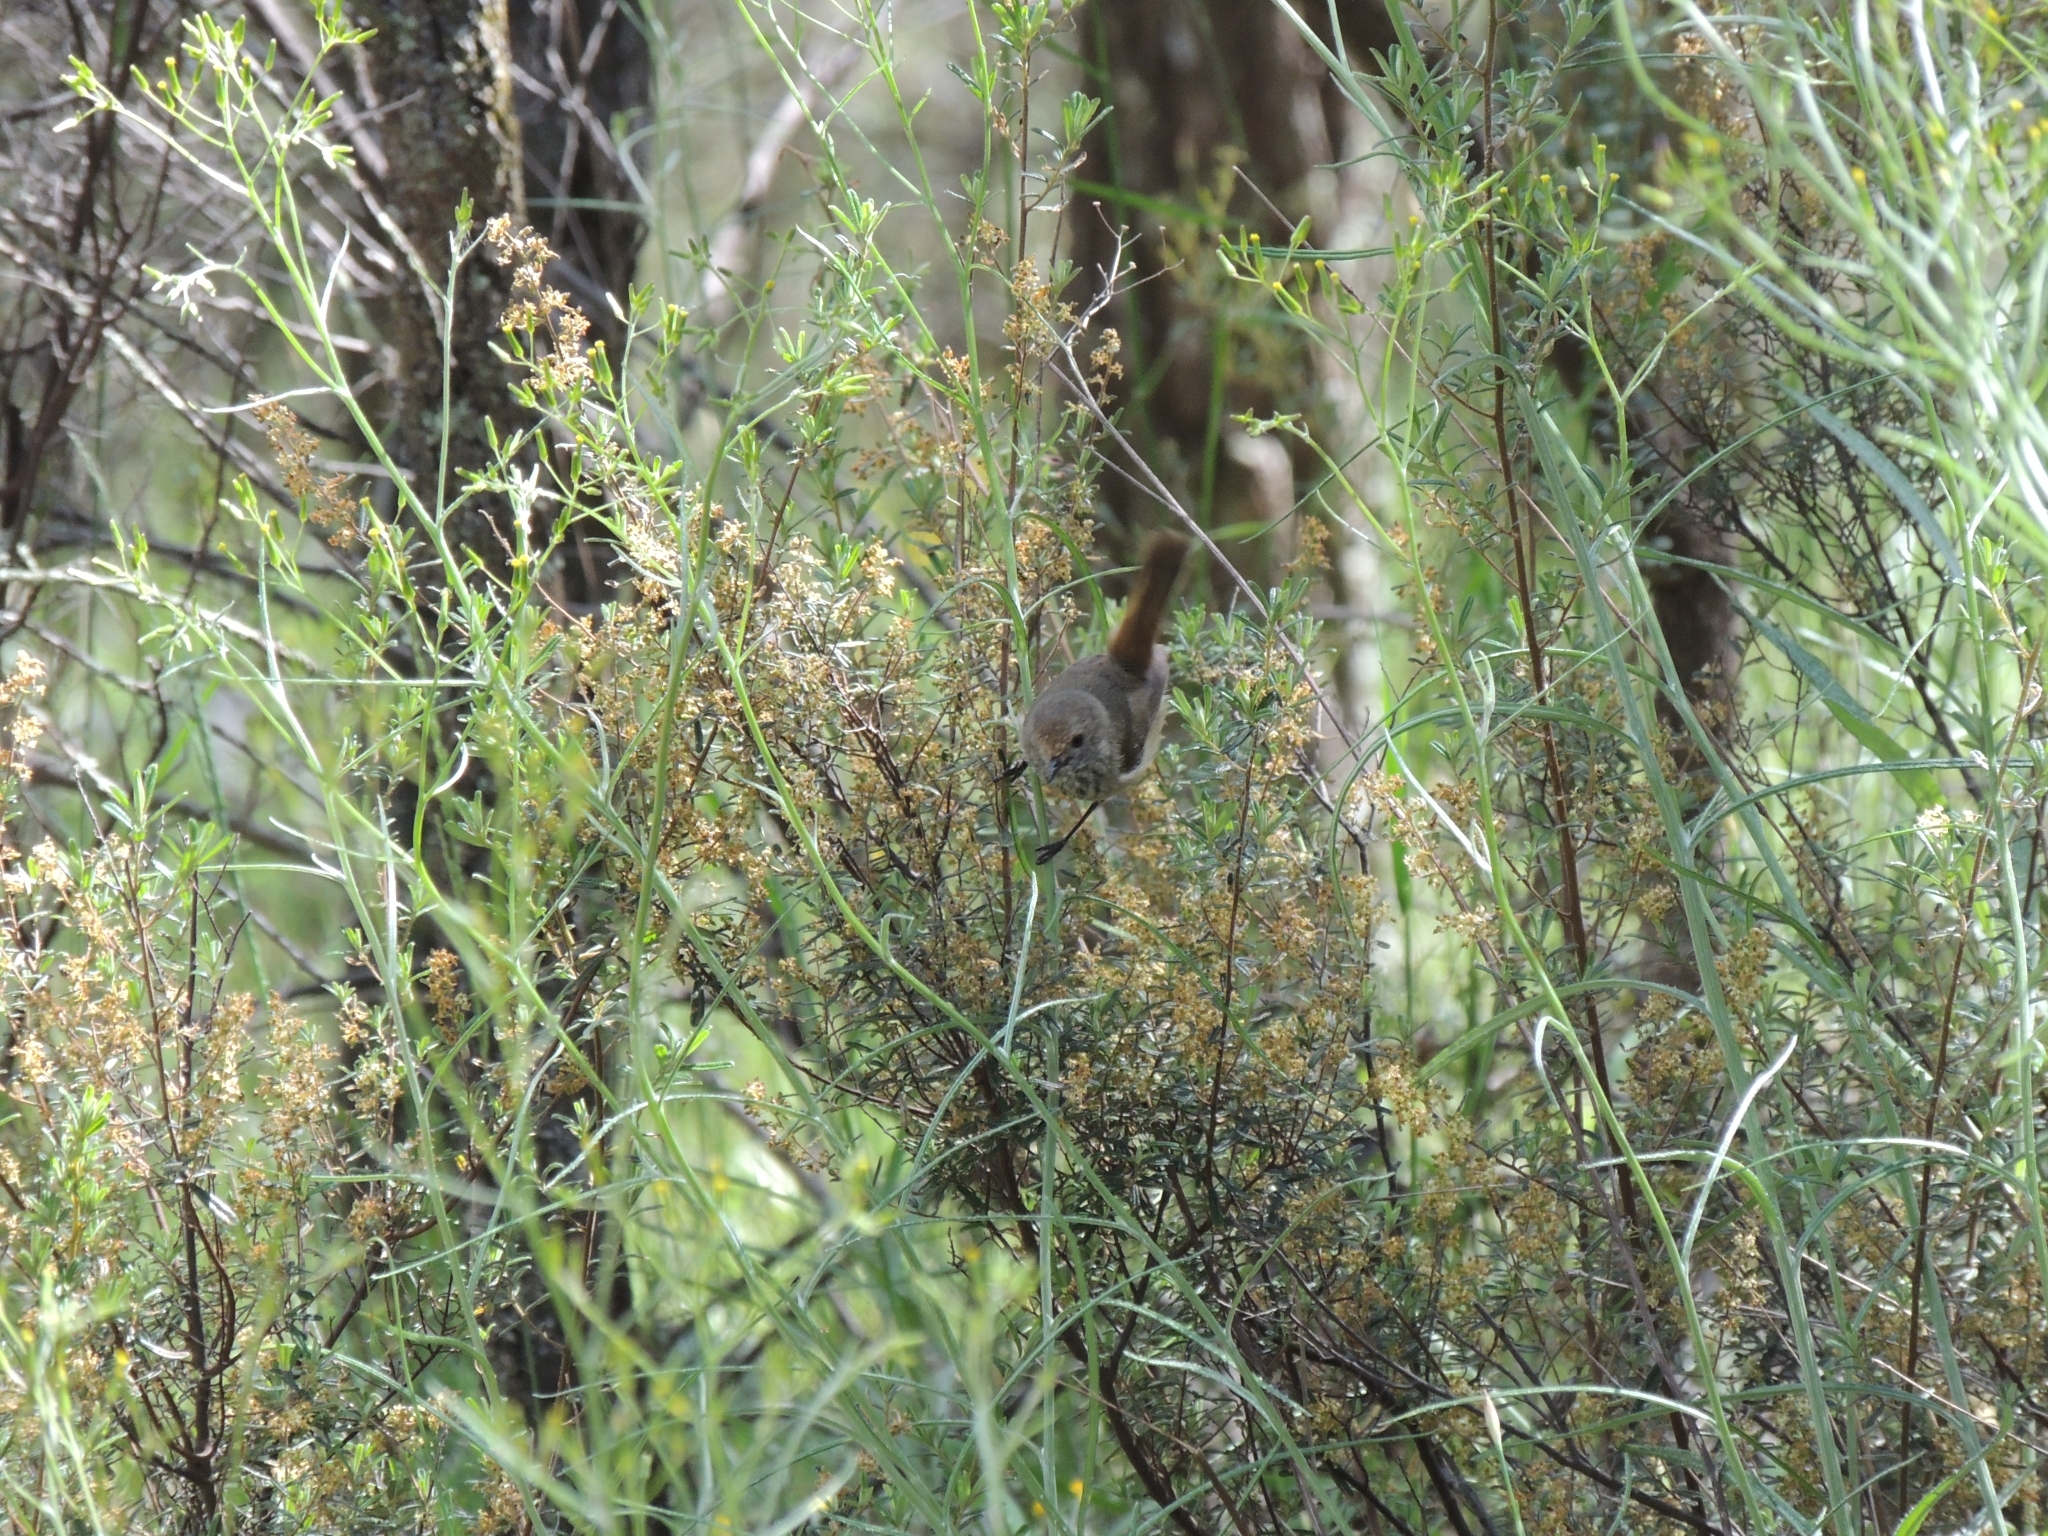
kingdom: Animalia
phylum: Chordata
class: Aves
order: Passeriformes
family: Acanthizidae
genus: Acanthiza
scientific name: Acanthiza pusilla
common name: Brown thornbill
